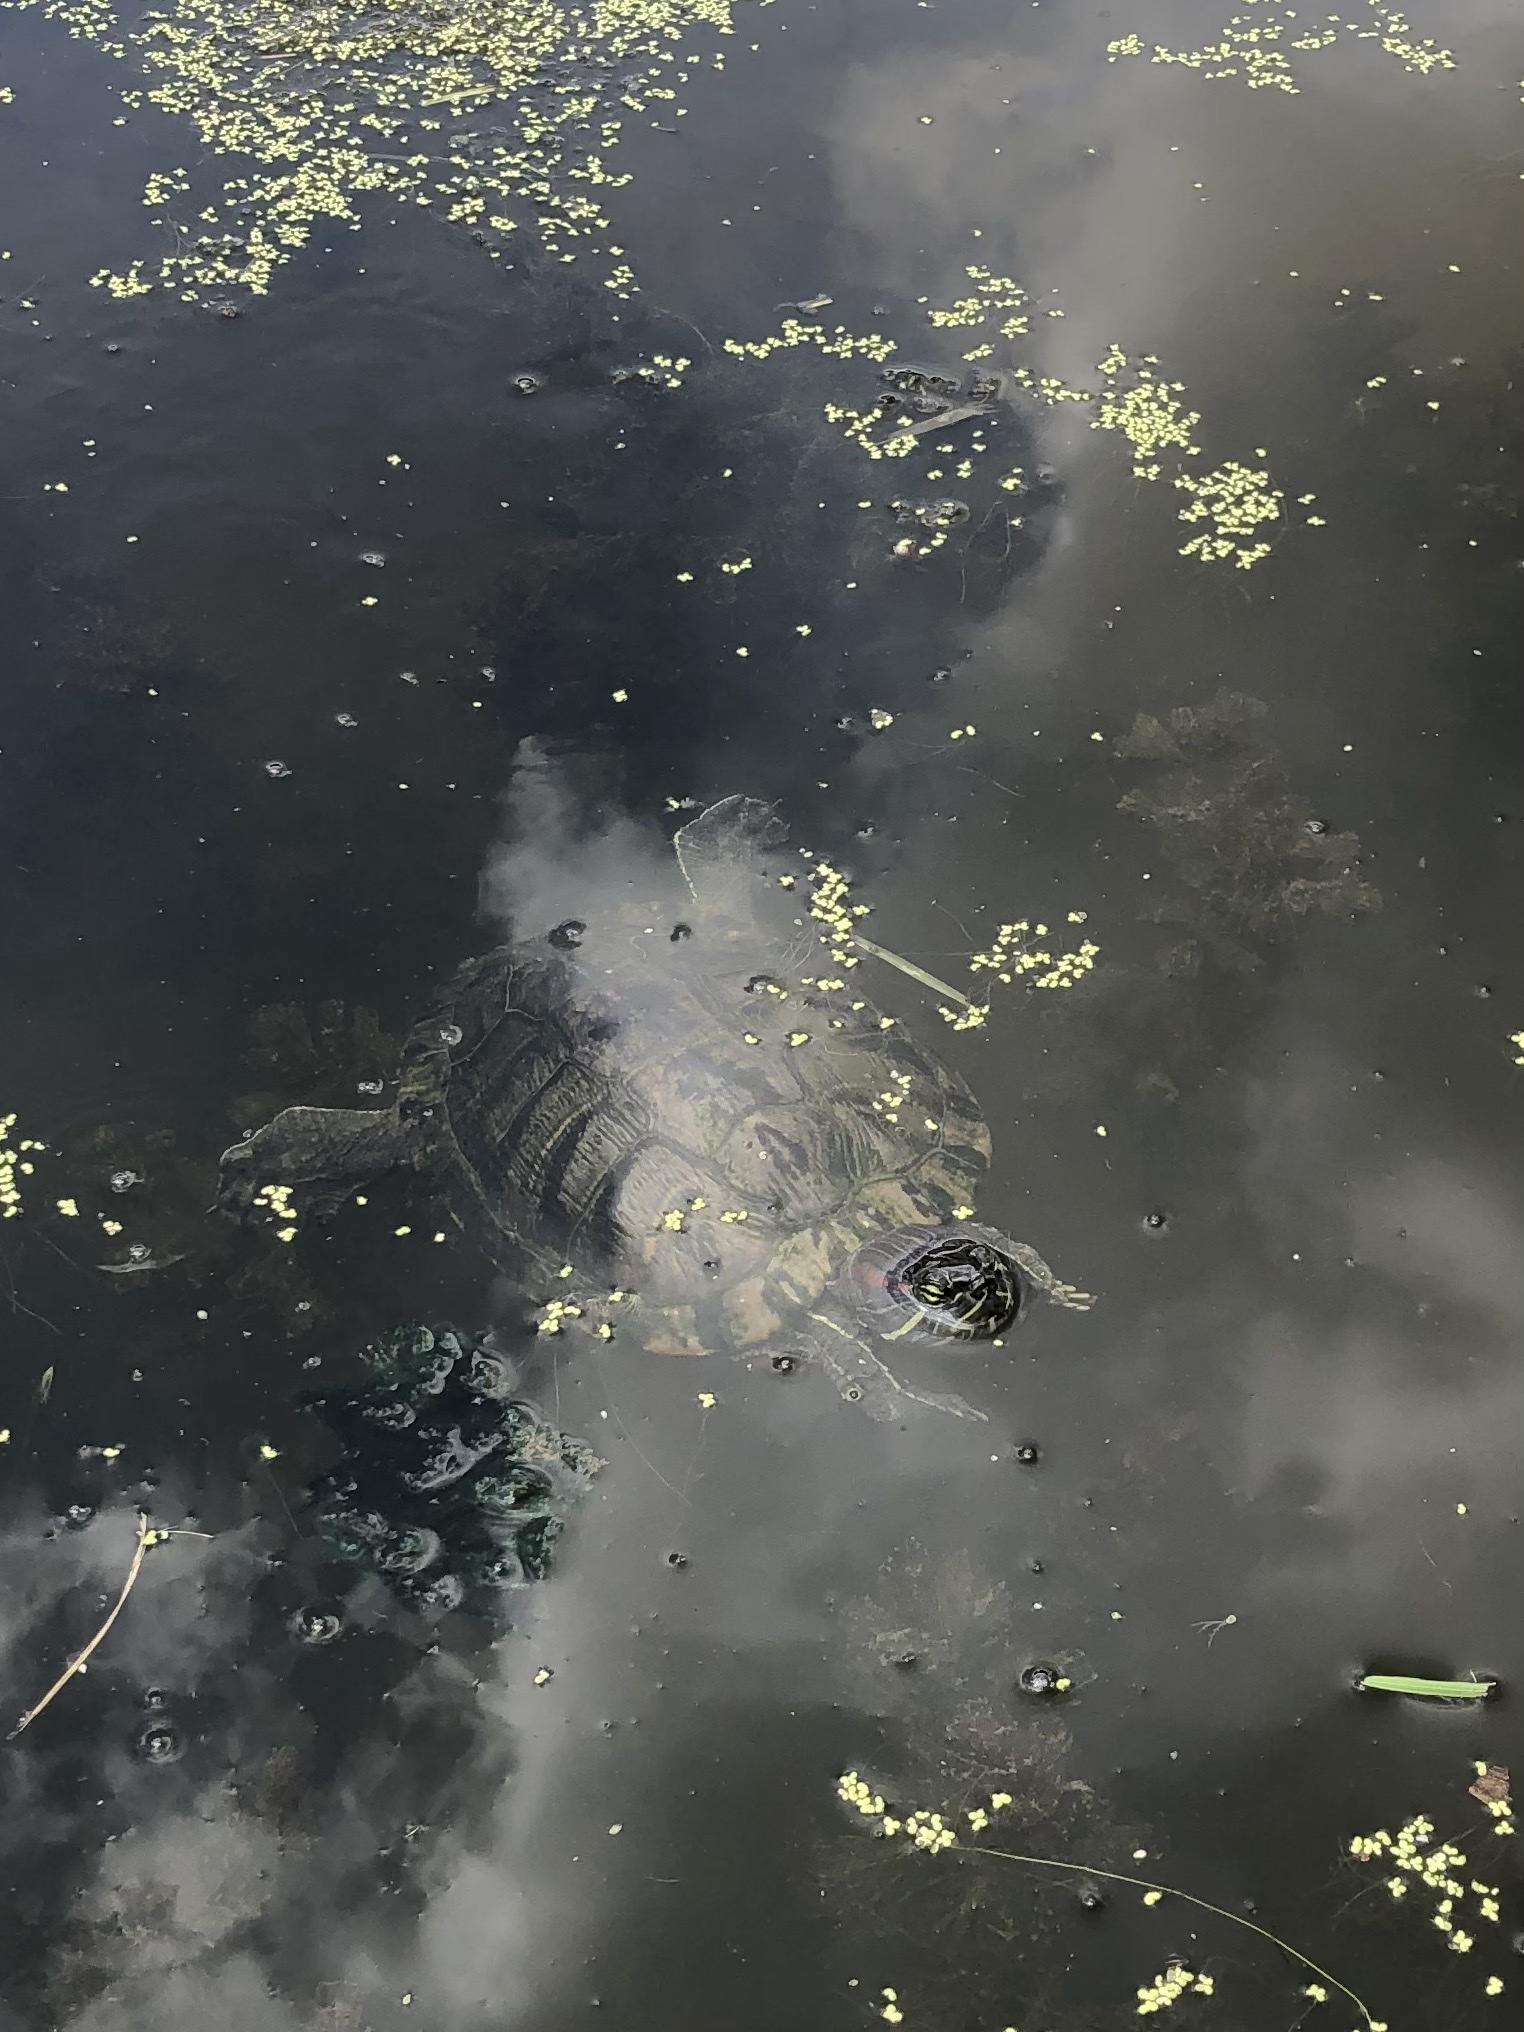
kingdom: Animalia
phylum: Chordata
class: Testudines
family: Emydidae
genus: Trachemys
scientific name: Trachemys scripta
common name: Slider
